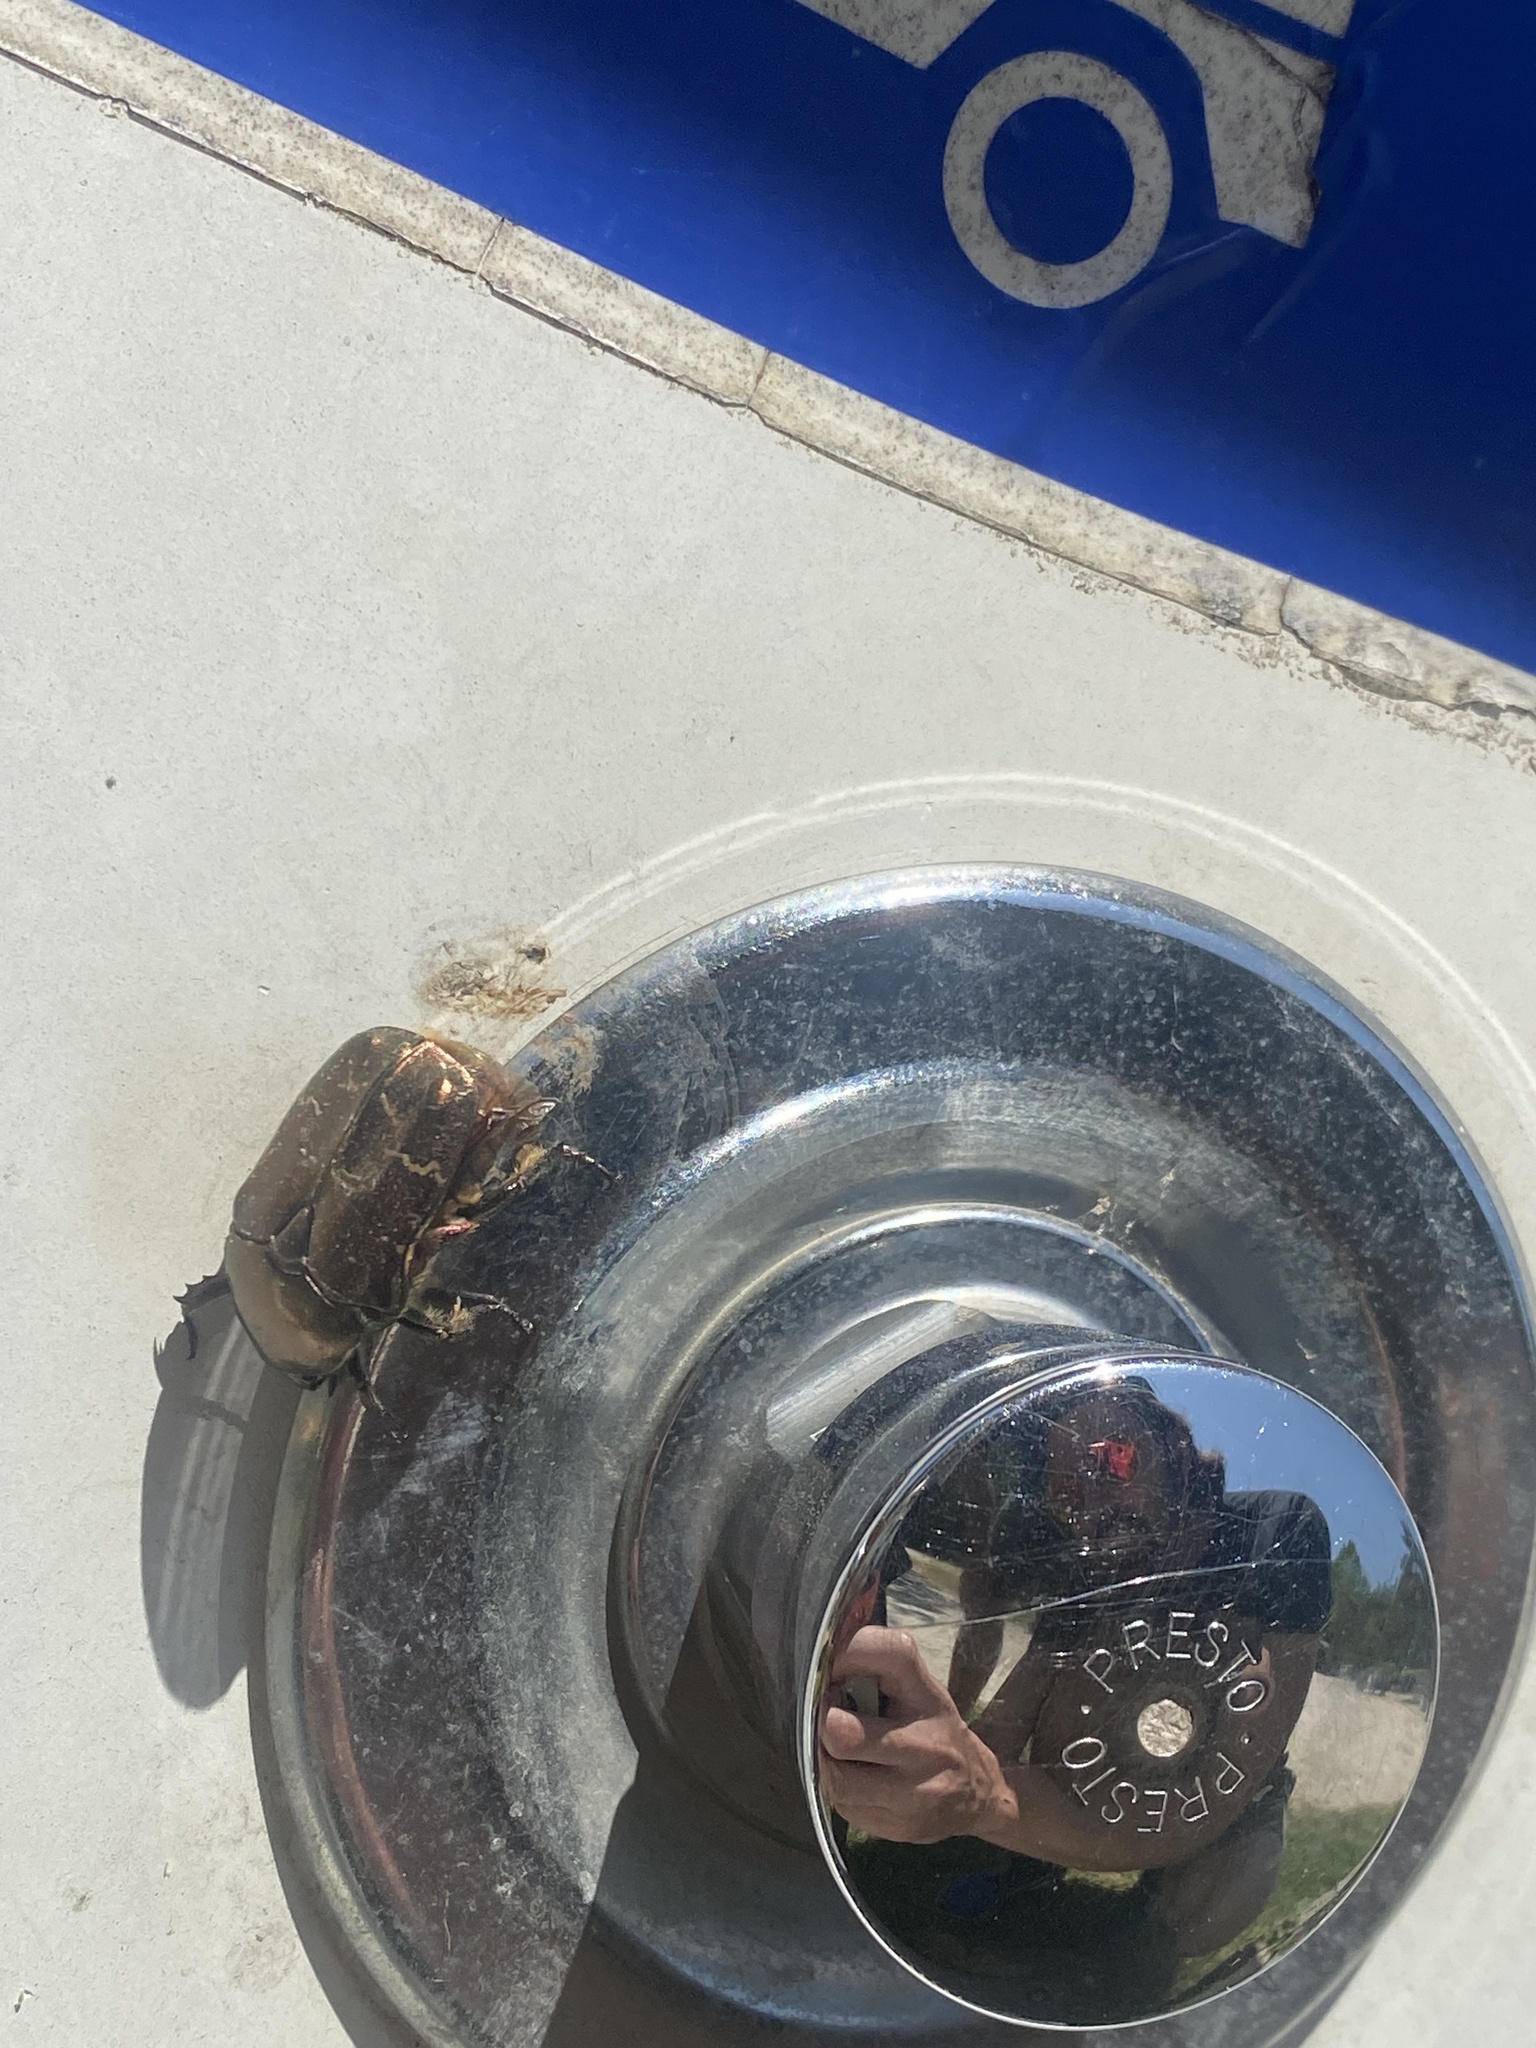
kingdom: Animalia
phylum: Arthropoda
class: Insecta
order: Coleoptera
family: Scarabaeidae
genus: Protaetia
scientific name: Protaetia cuprea
